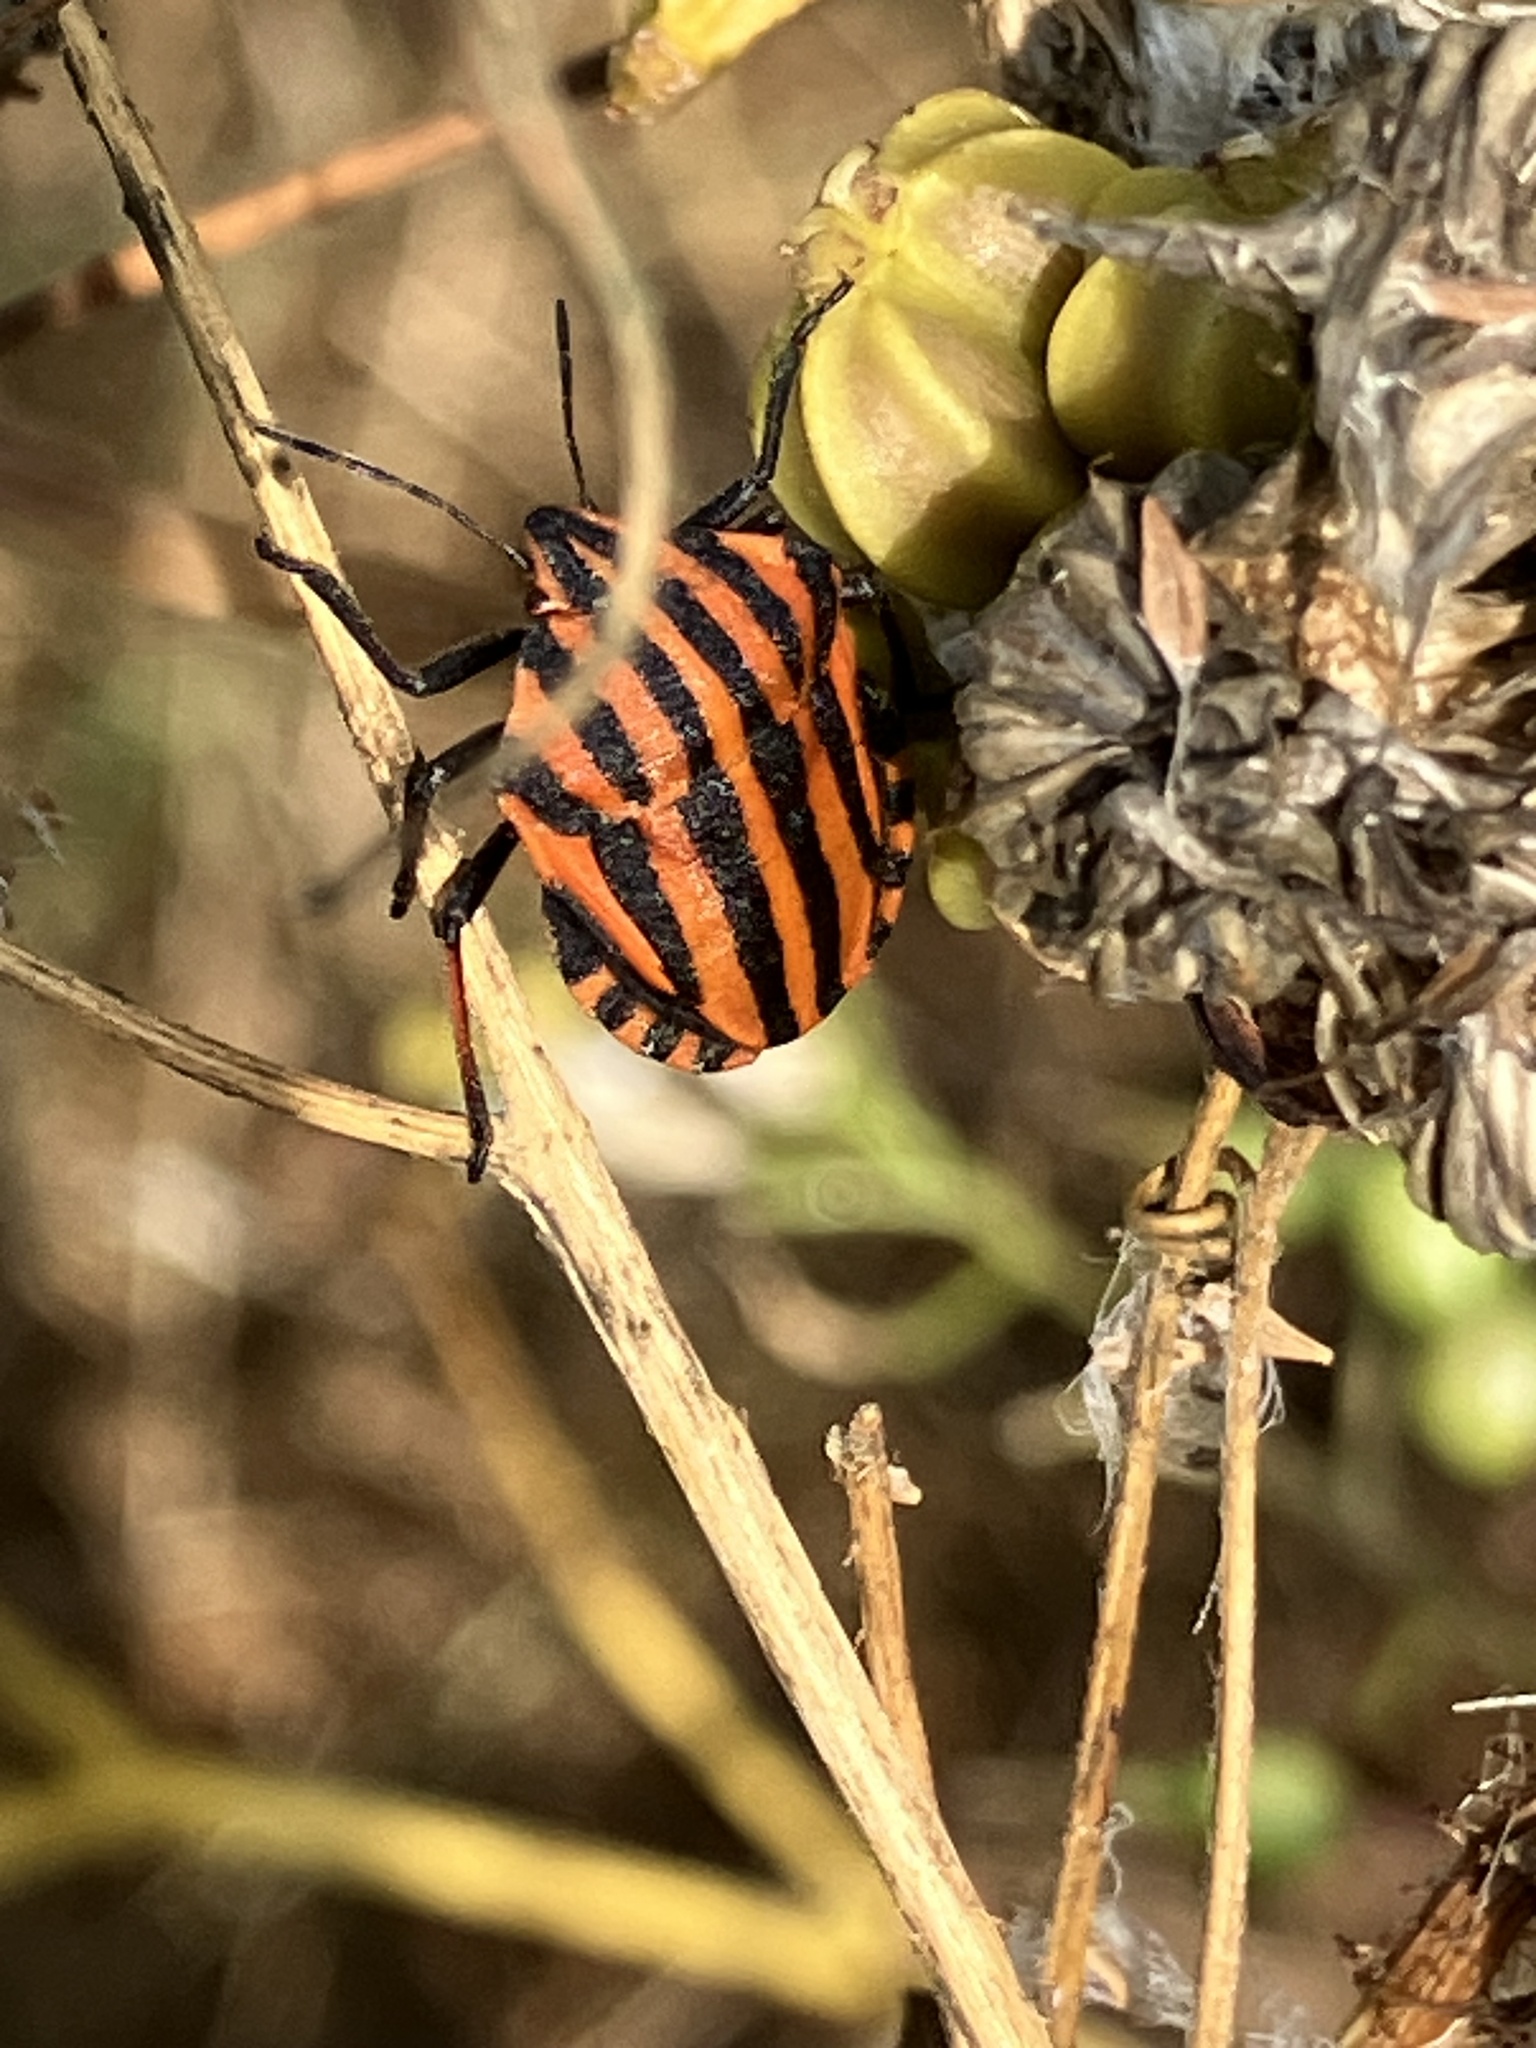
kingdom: Animalia
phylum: Arthropoda
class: Insecta
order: Hemiptera
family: Pentatomidae
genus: Graphosoma
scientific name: Graphosoma italicum
